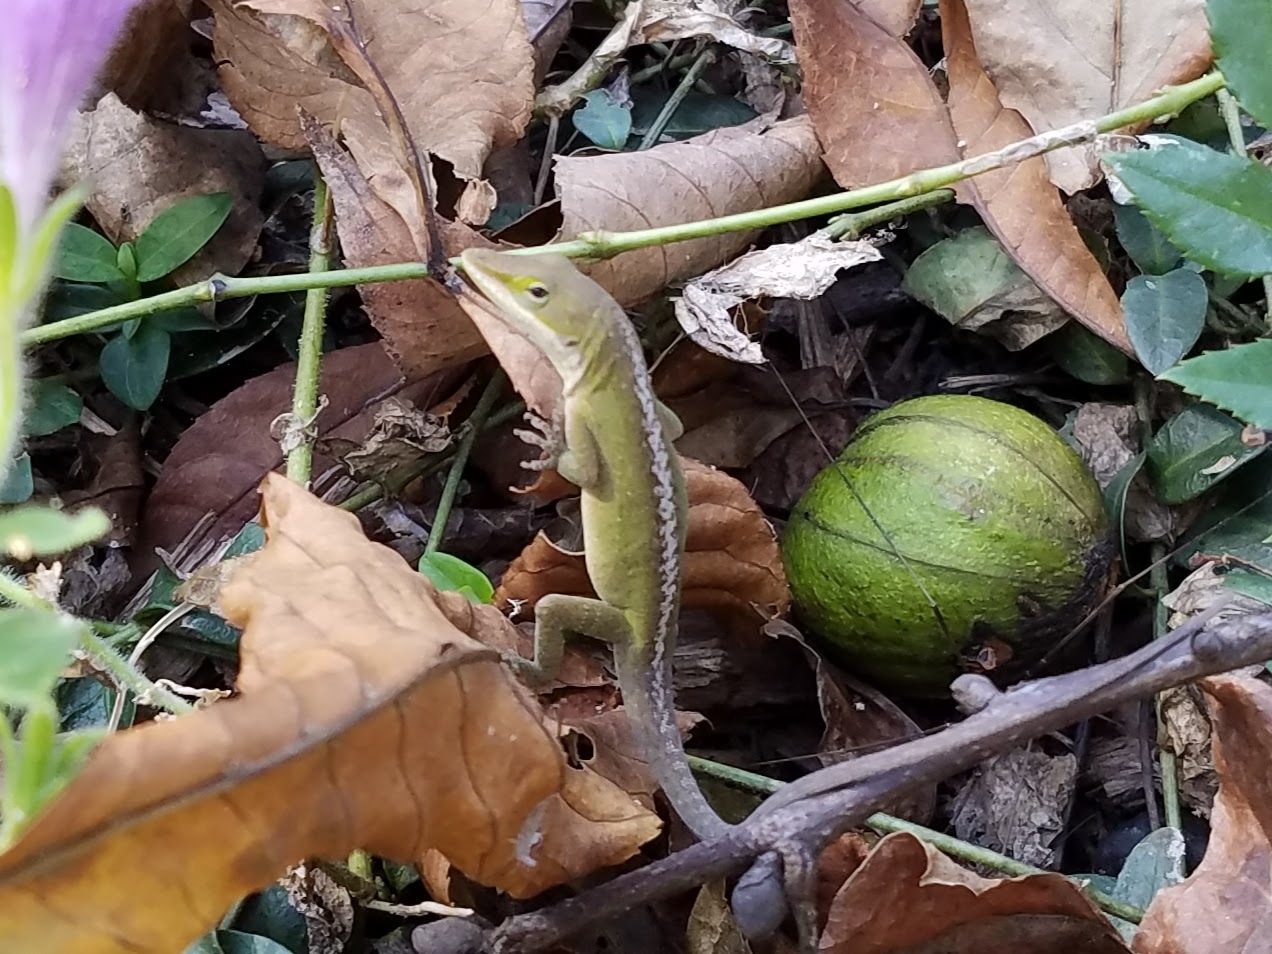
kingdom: Animalia
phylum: Chordata
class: Squamata
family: Dactyloidae
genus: Anolis
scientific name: Anolis carolinensis
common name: Green anole
